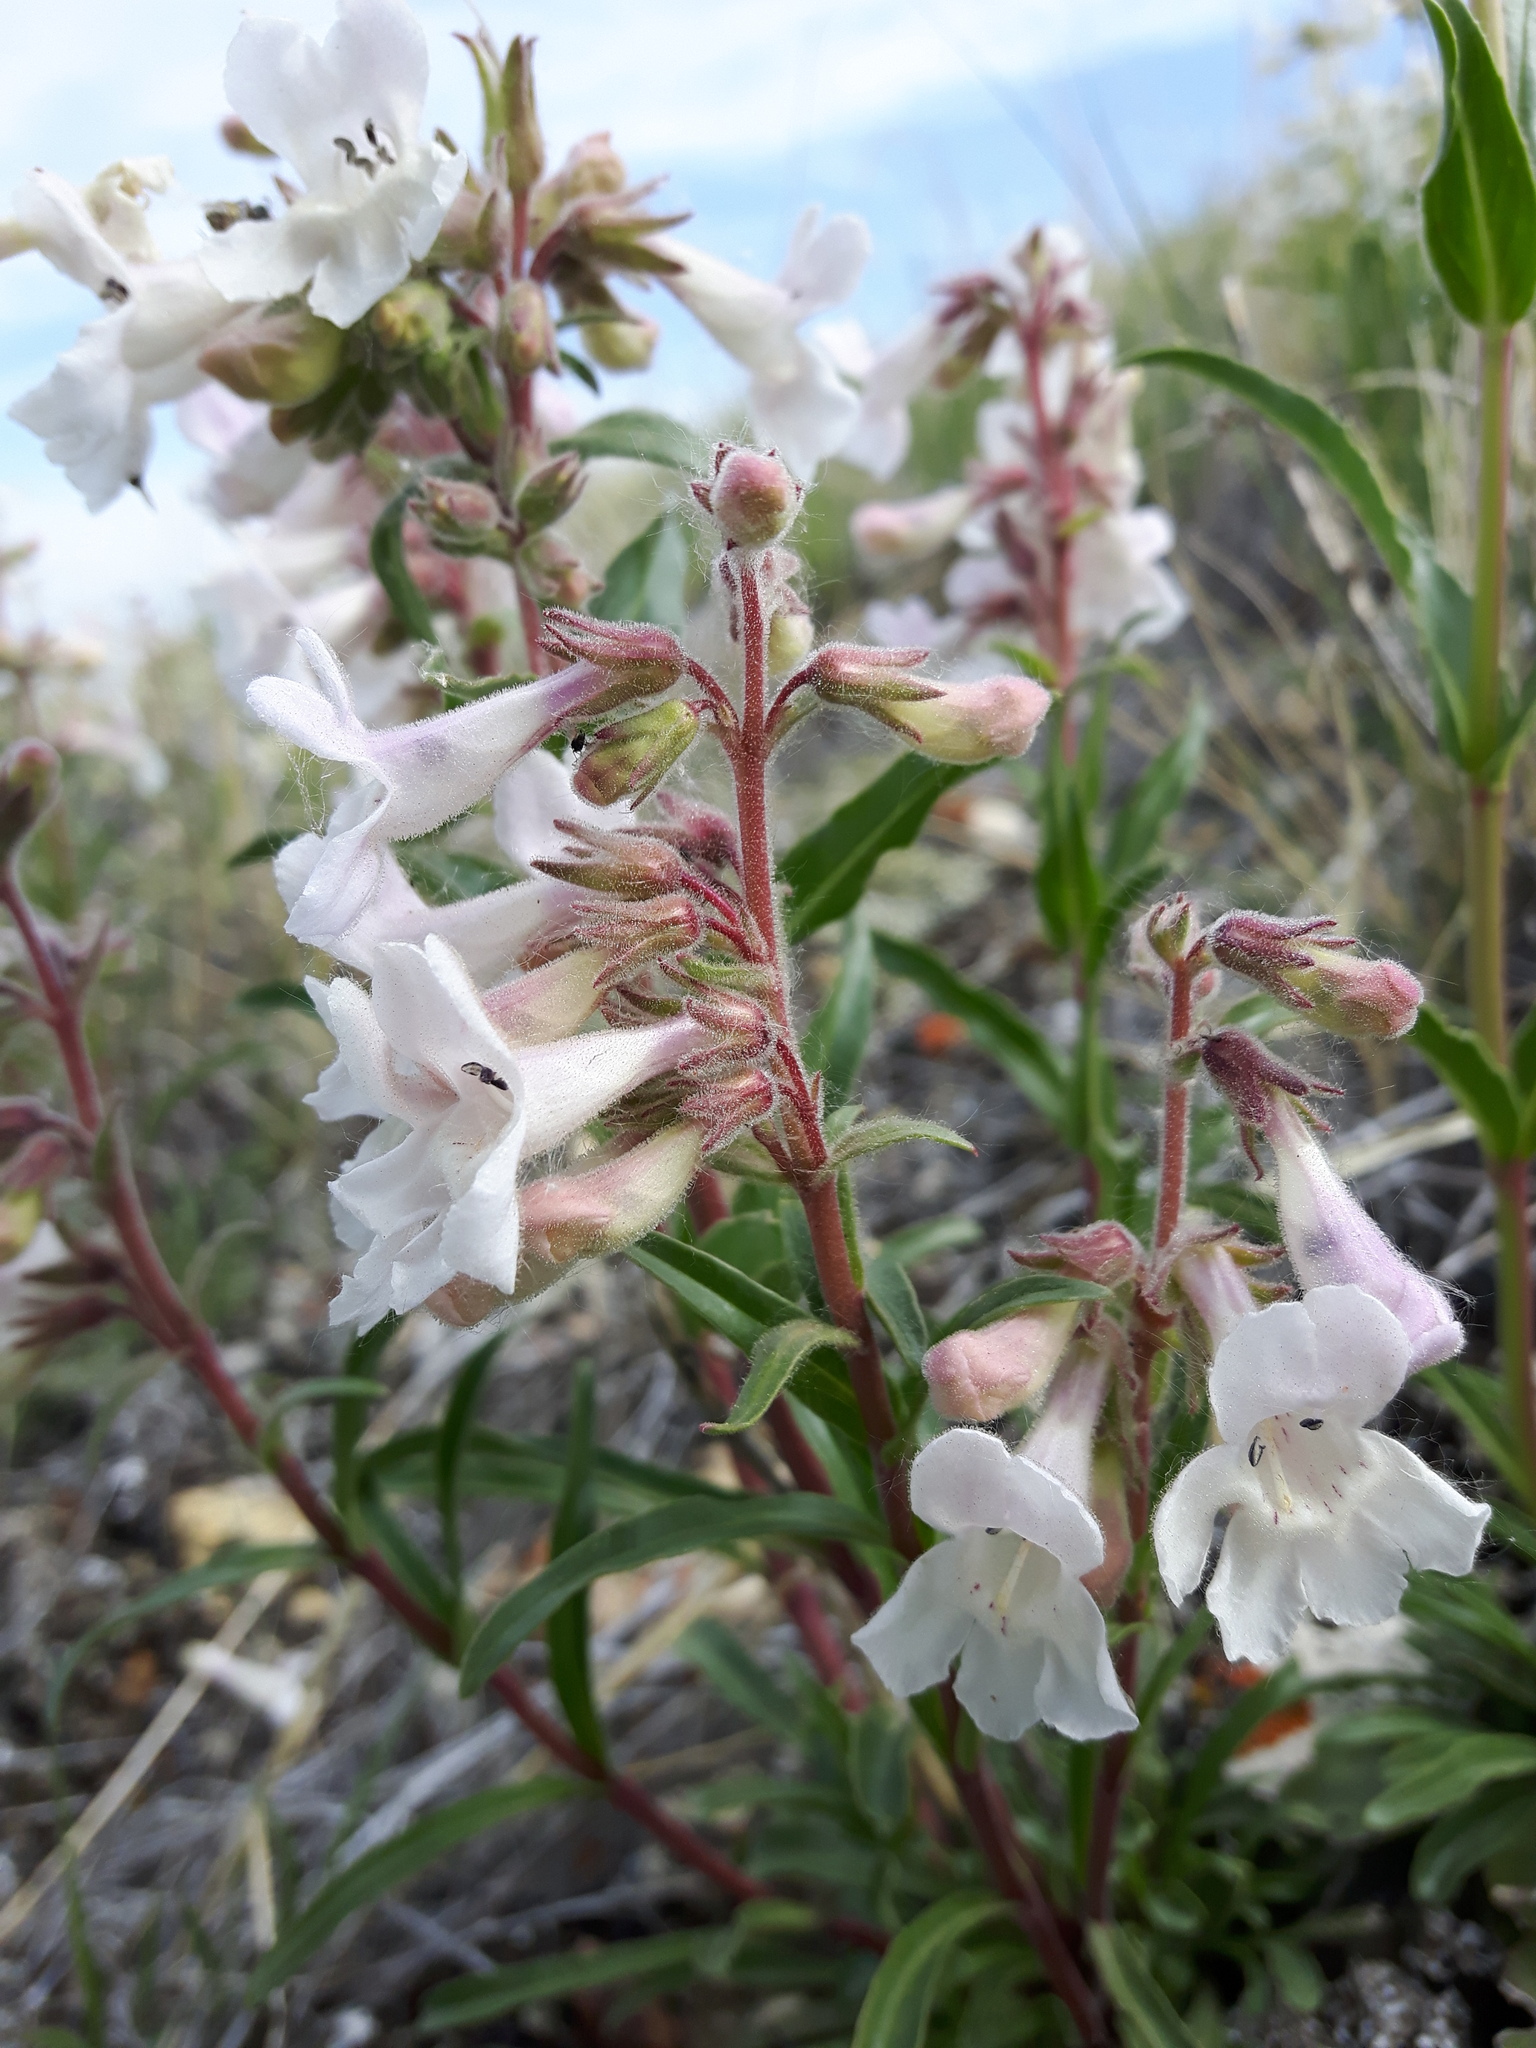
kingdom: Plantae
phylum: Tracheophyta
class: Magnoliopsida
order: Lamiales
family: Plantaginaceae
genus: Penstemon
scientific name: Penstemon albidus
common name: White beardtongue
